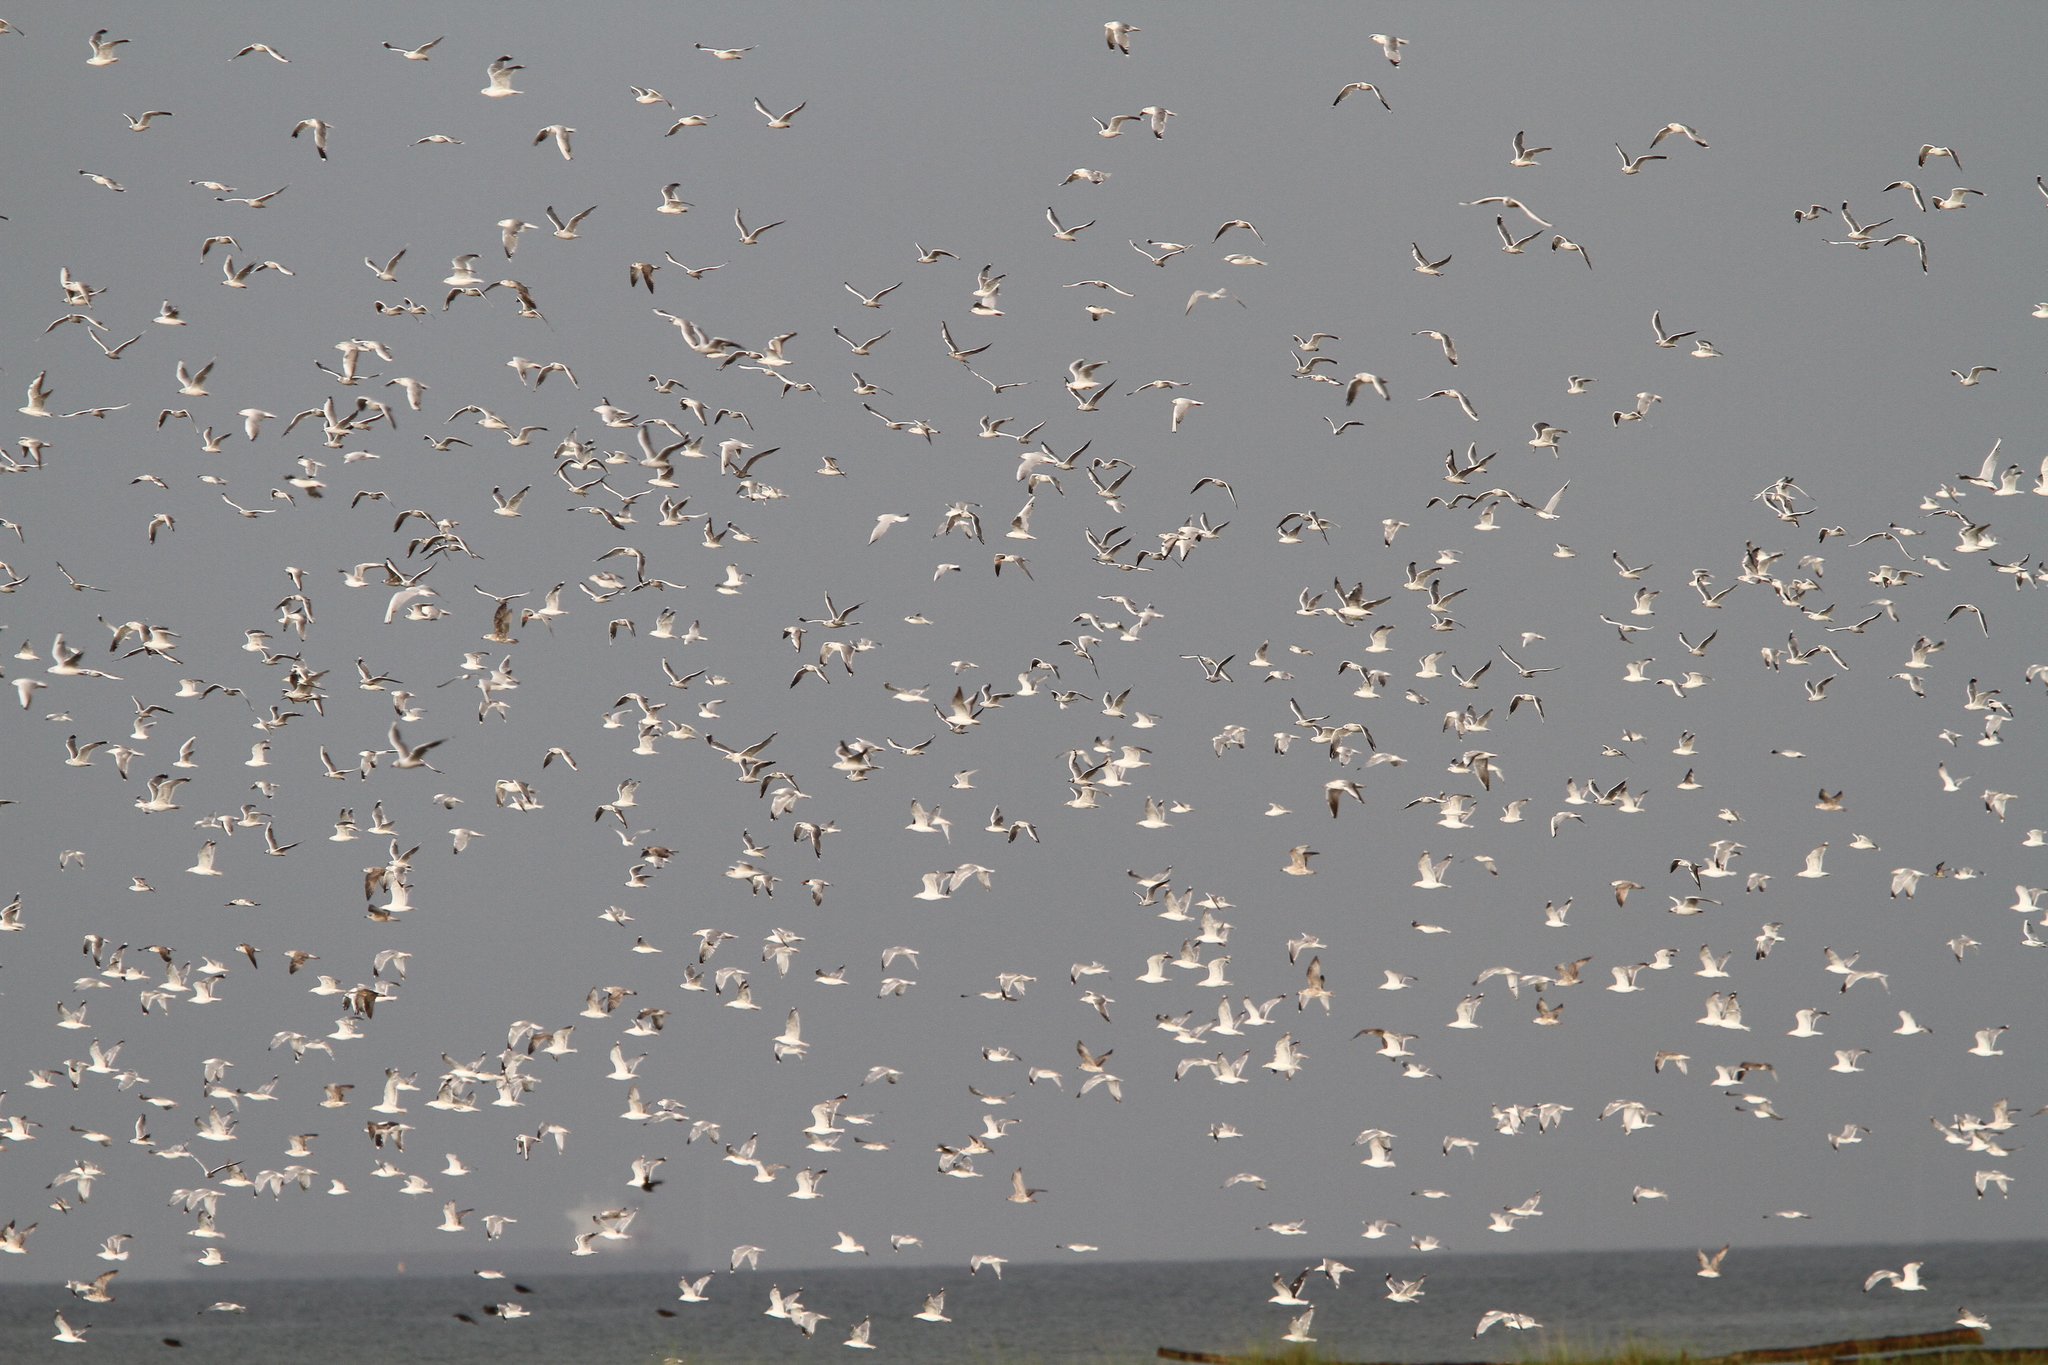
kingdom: Animalia
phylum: Chordata
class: Aves
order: Charadriiformes
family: Laridae
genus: Chroicocephalus
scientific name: Chroicocephalus ridibundus
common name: Black-headed gull
